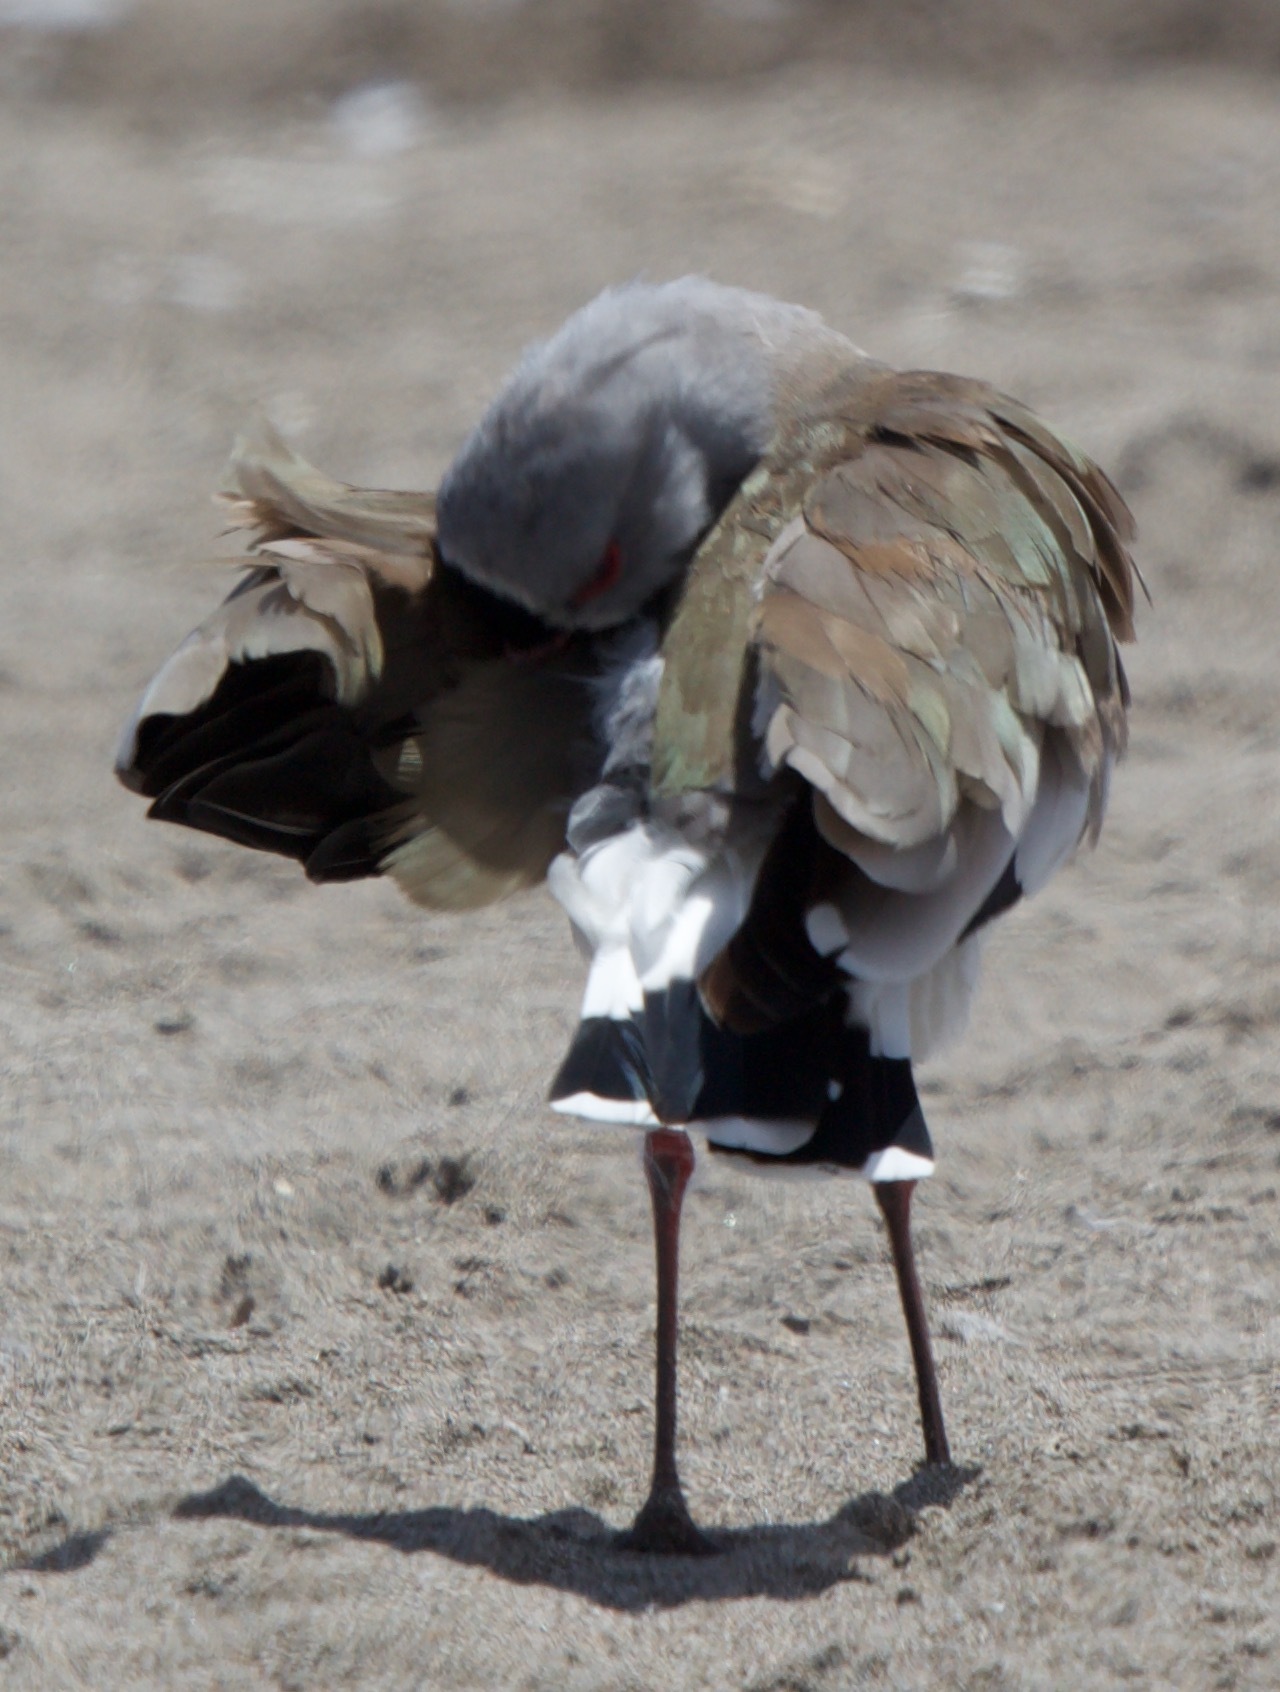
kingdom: Animalia
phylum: Chordata
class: Aves
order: Charadriiformes
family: Charadriidae
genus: Vanellus
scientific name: Vanellus chilensis
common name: Southern lapwing
